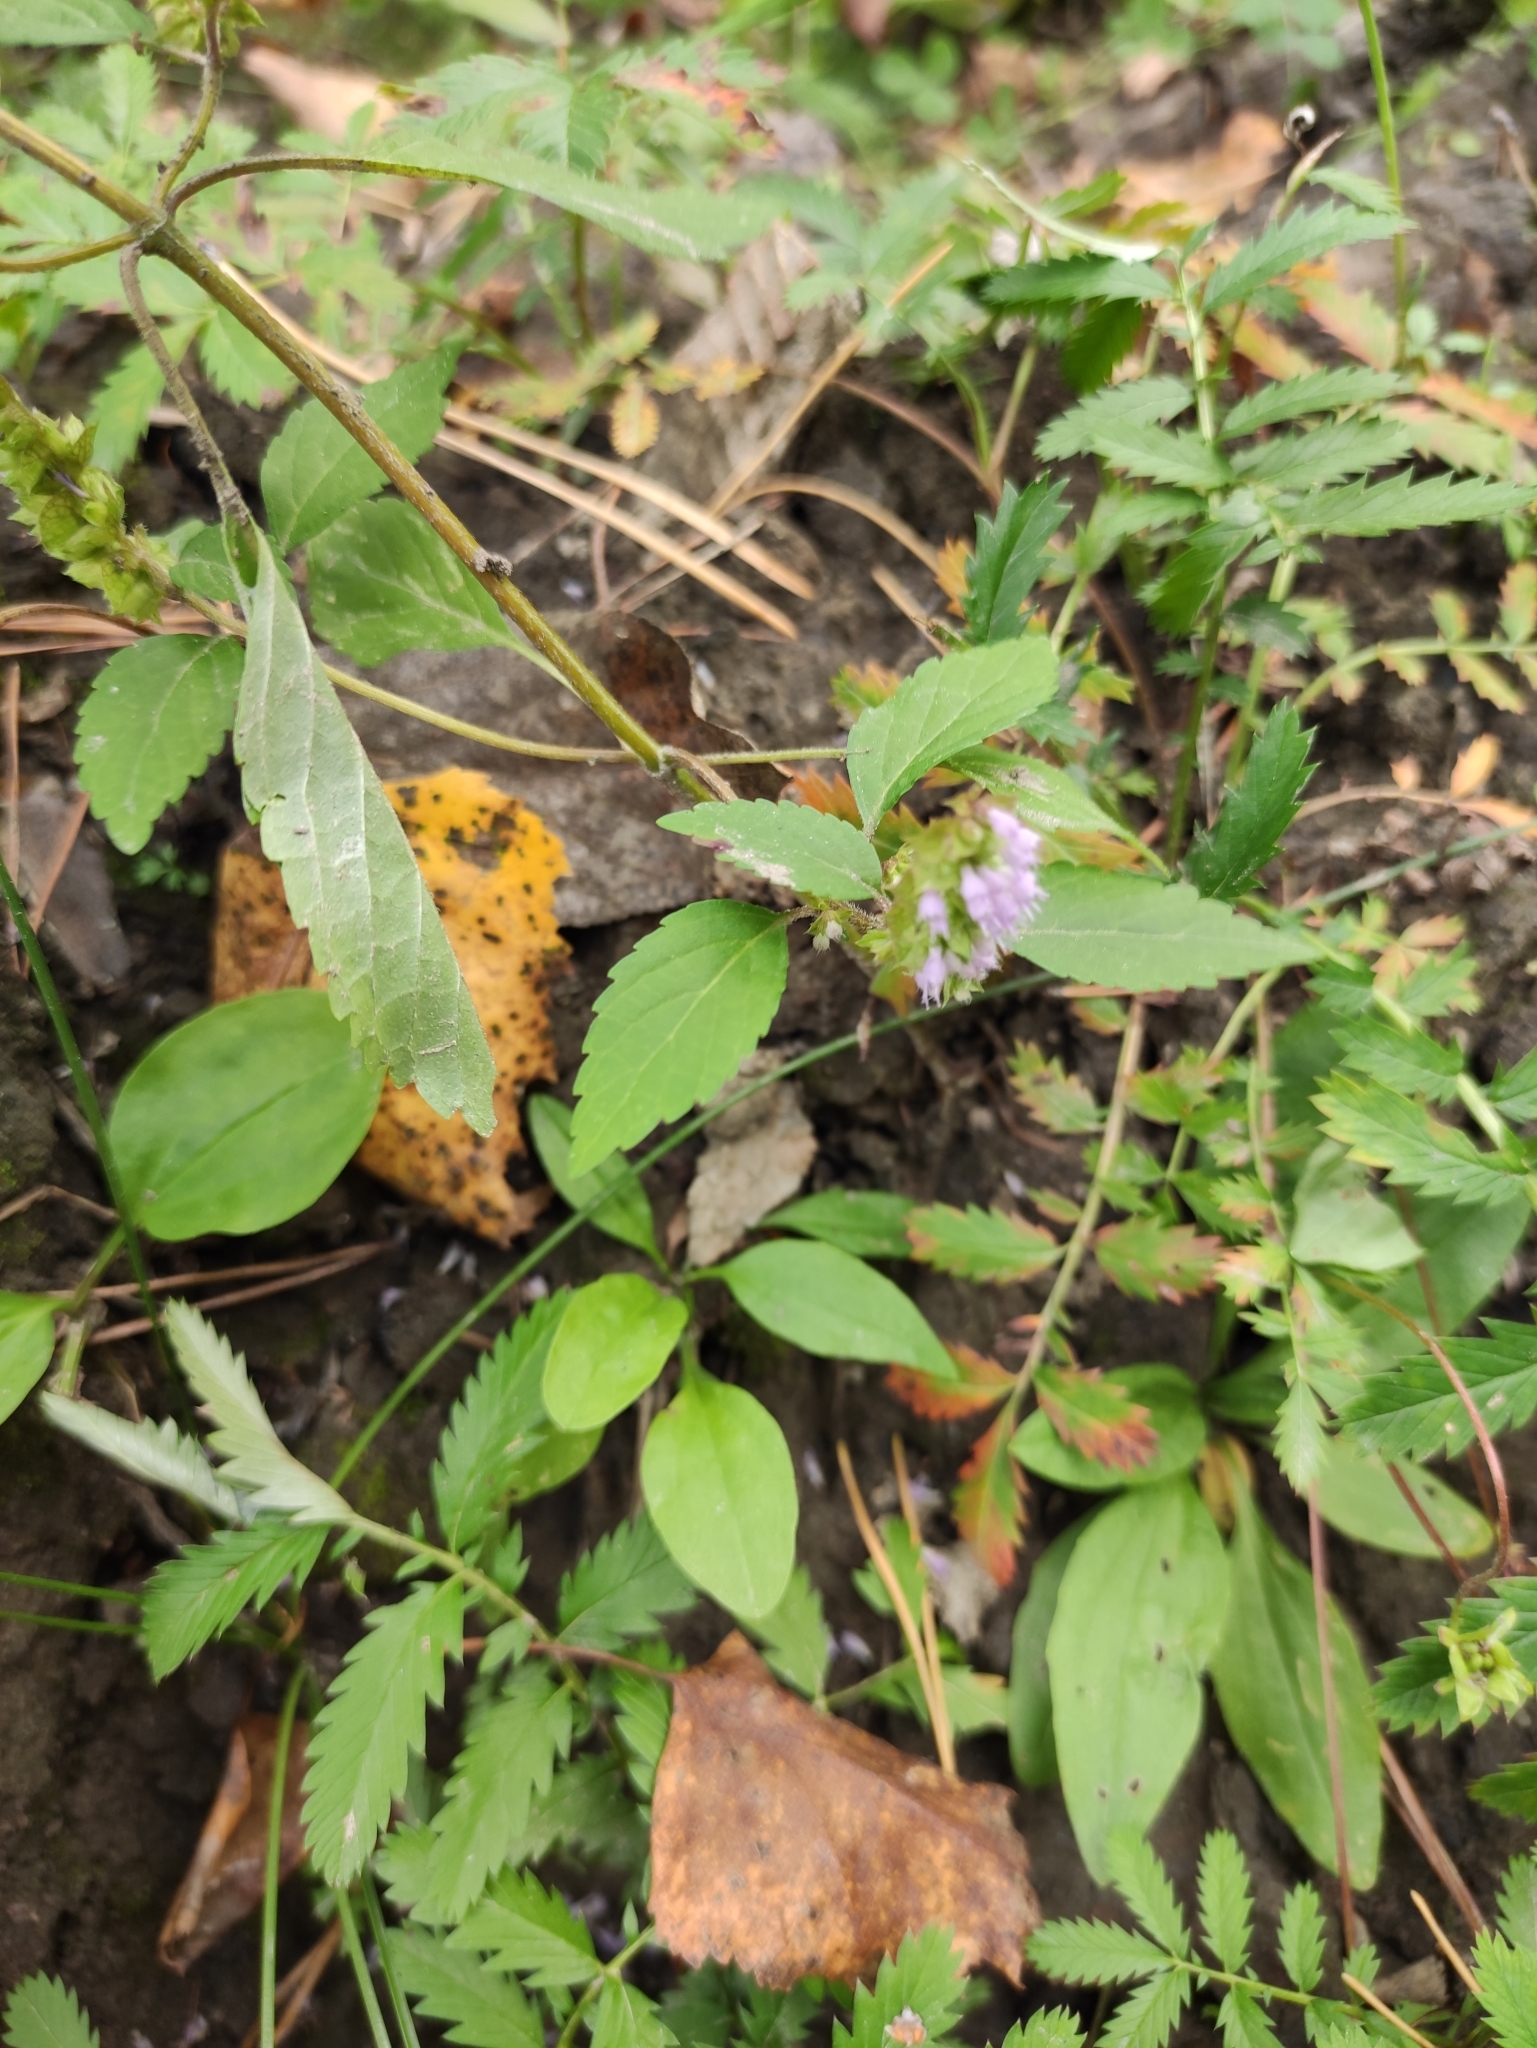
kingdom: Plantae
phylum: Tracheophyta
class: Magnoliopsida
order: Lamiales
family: Lamiaceae
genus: Elsholtzia
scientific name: Elsholtzia ciliata
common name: Ciliate elsholtzia
